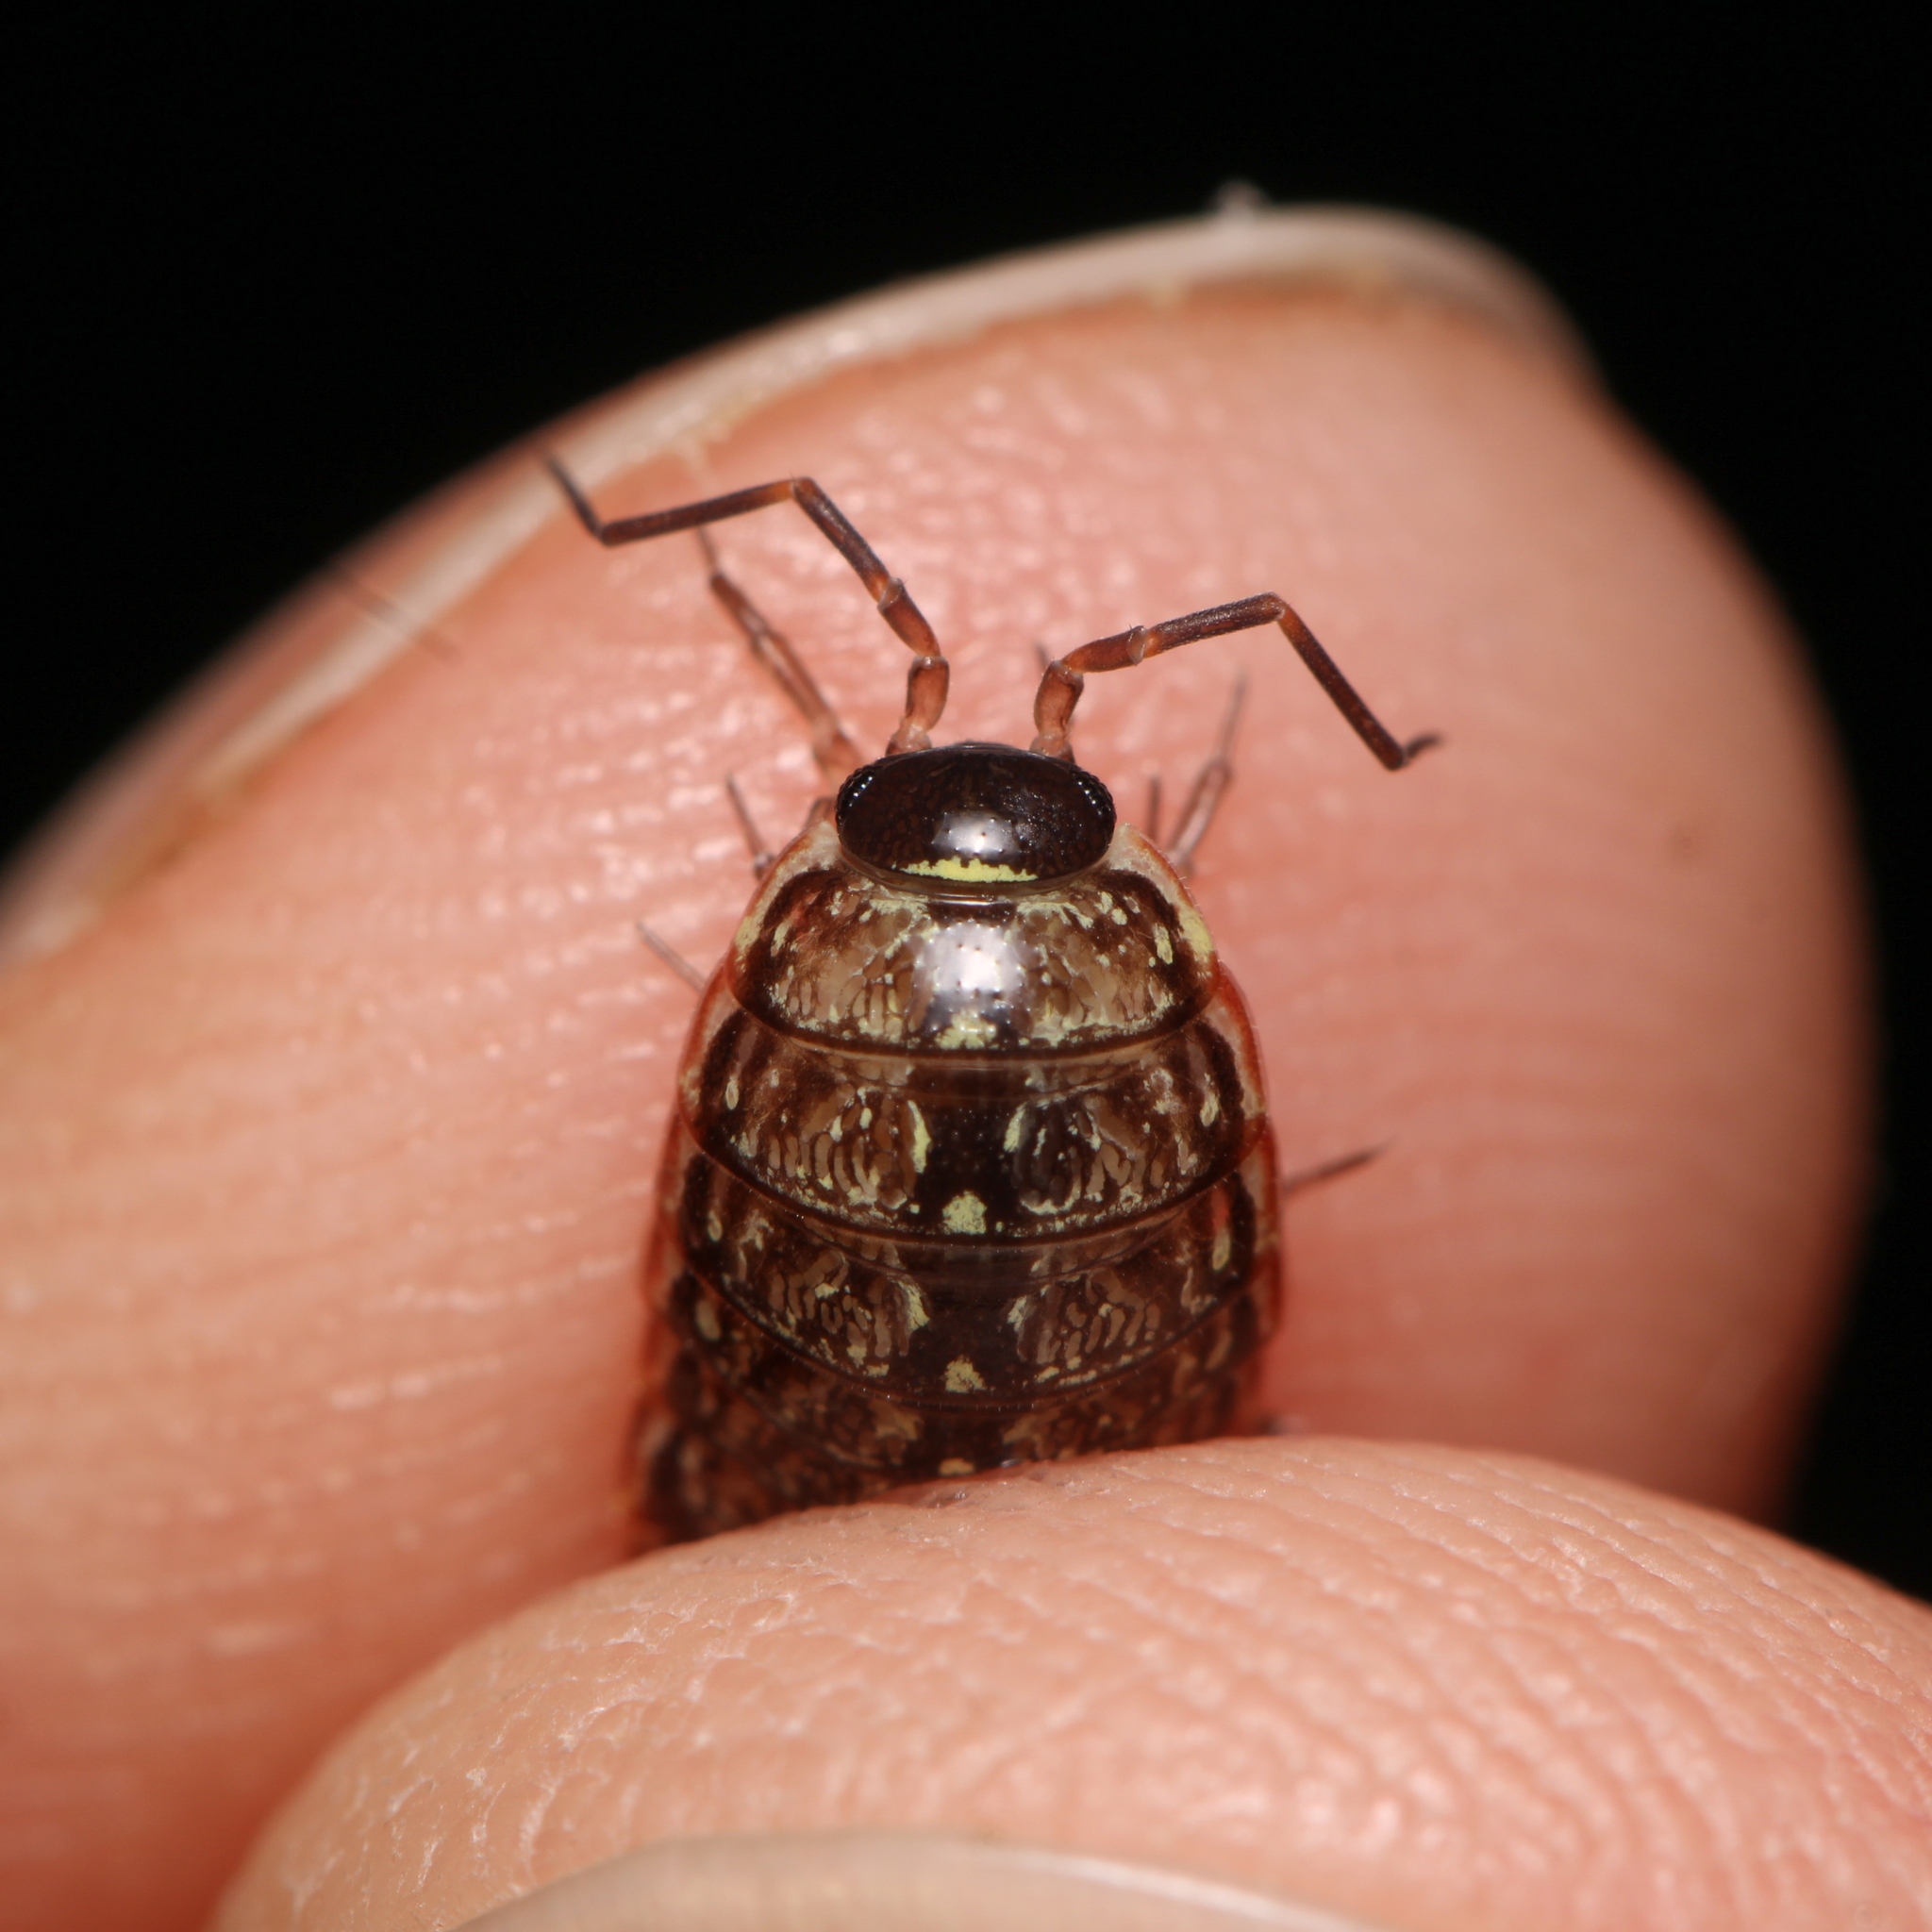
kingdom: Animalia
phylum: Arthropoda
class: Malacostraca
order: Isopoda
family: Philosciidae
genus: Philoscia
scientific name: Philoscia muscorum
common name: Common striped woodlouse
